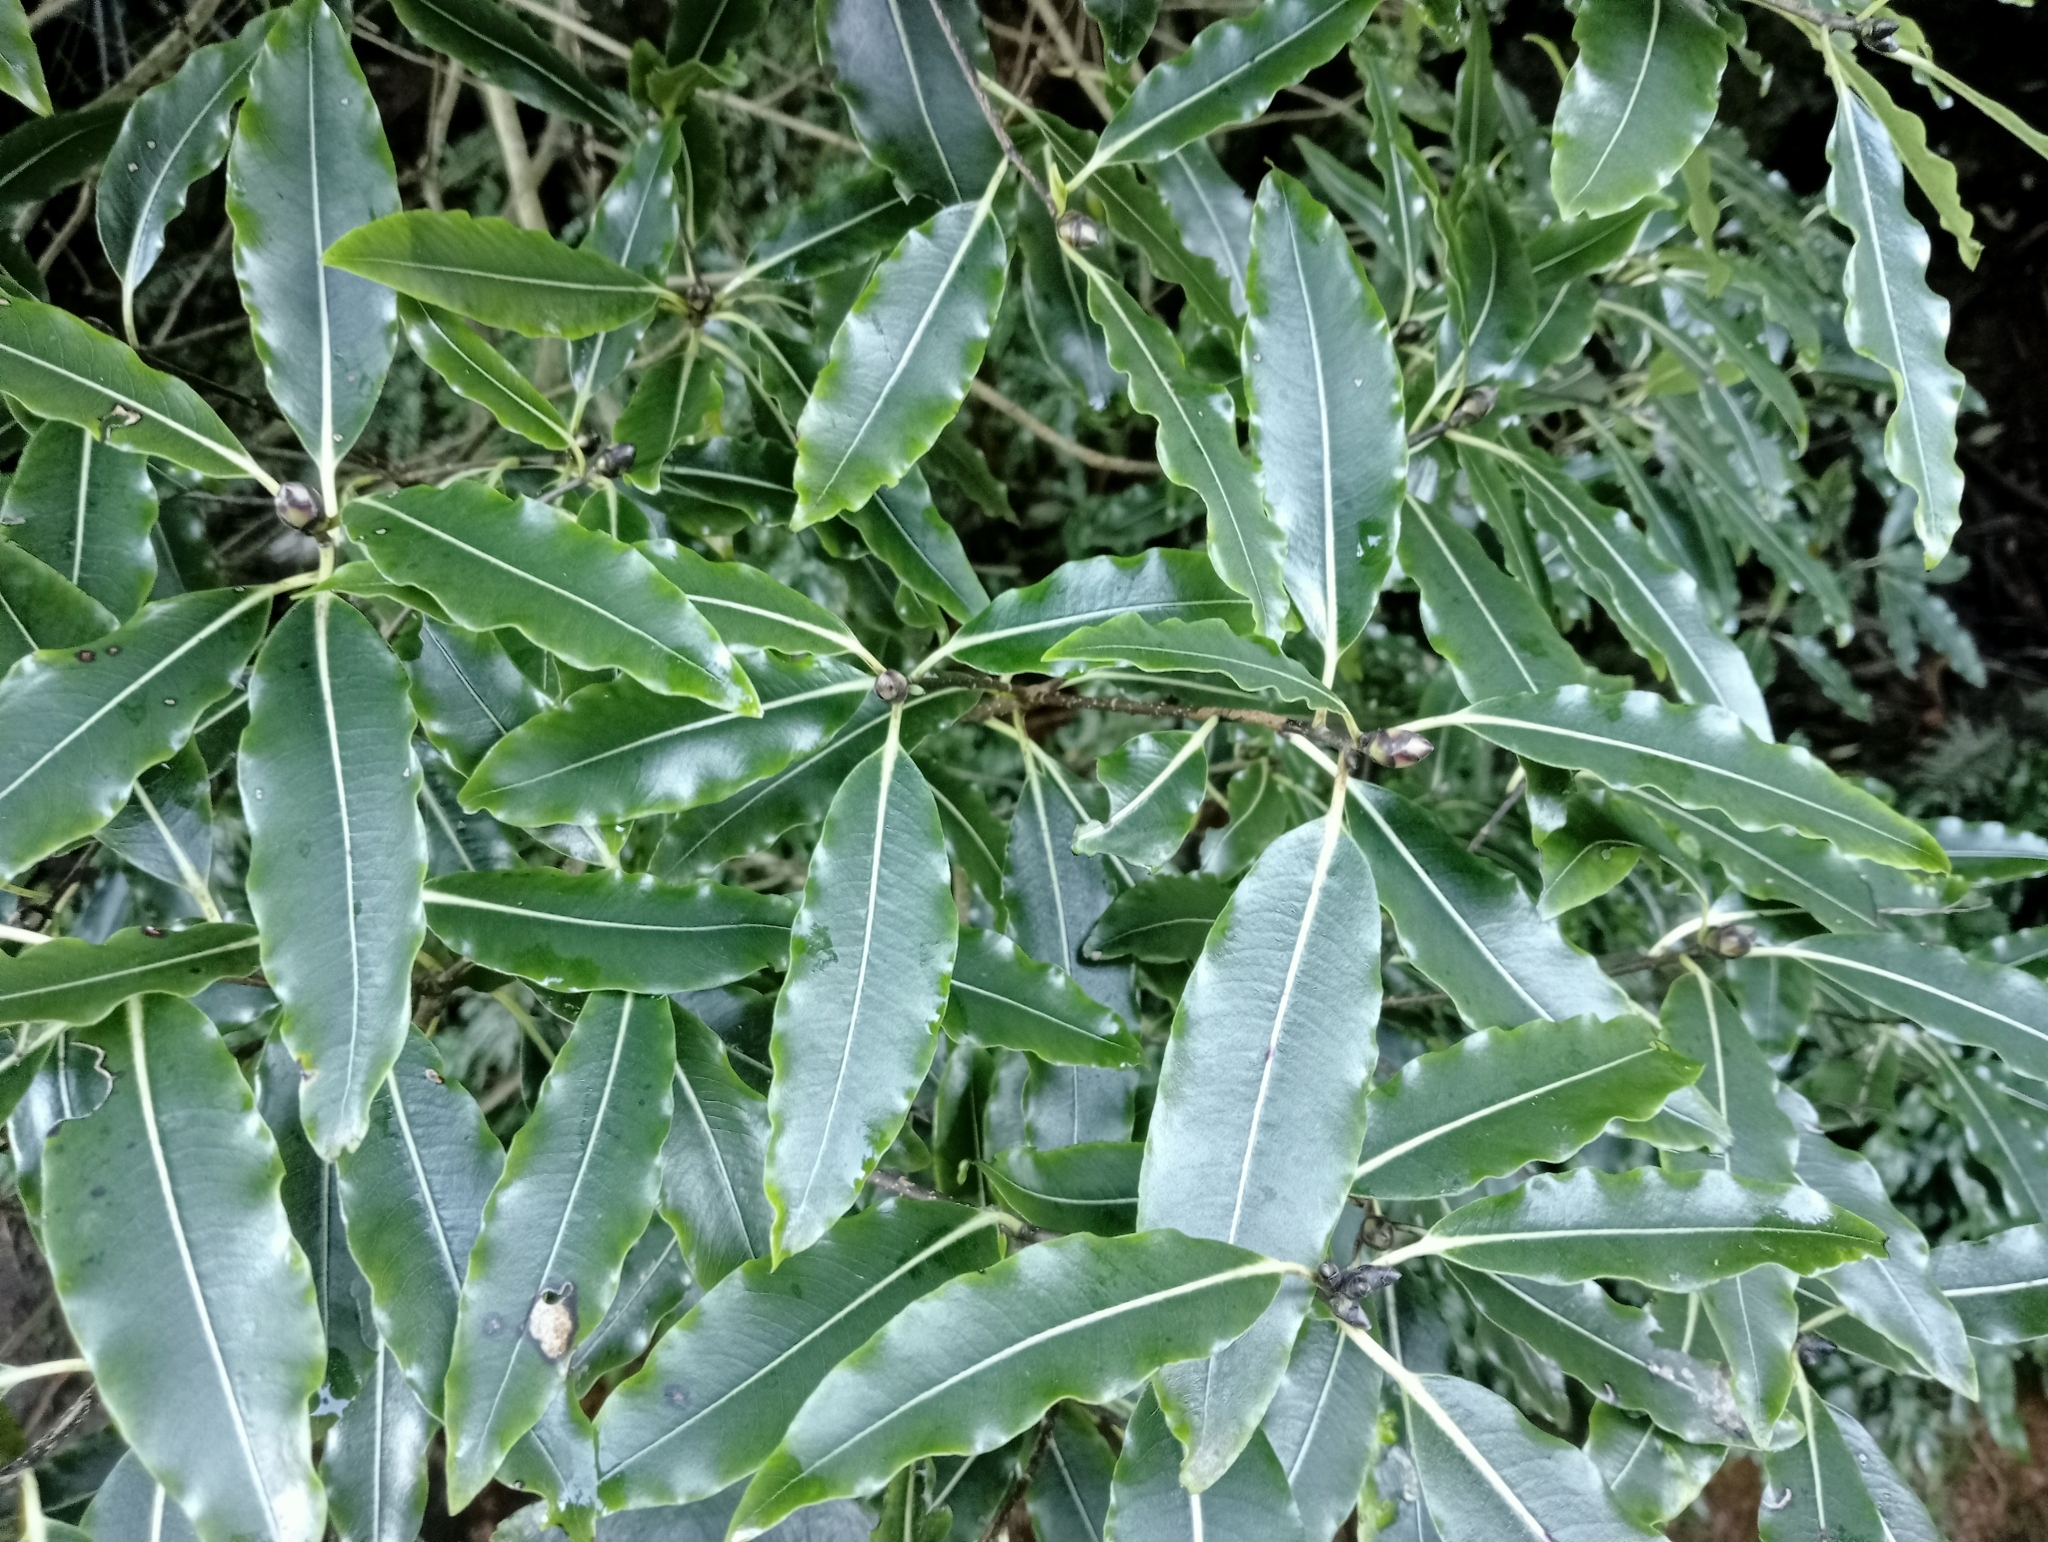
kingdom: Plantae
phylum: Tracheophyta
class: Magnoliopsida
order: Apiales
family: Pittosporaceae
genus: Pittosporum
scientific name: Pittosporum eugenioides
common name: Lemonwood
